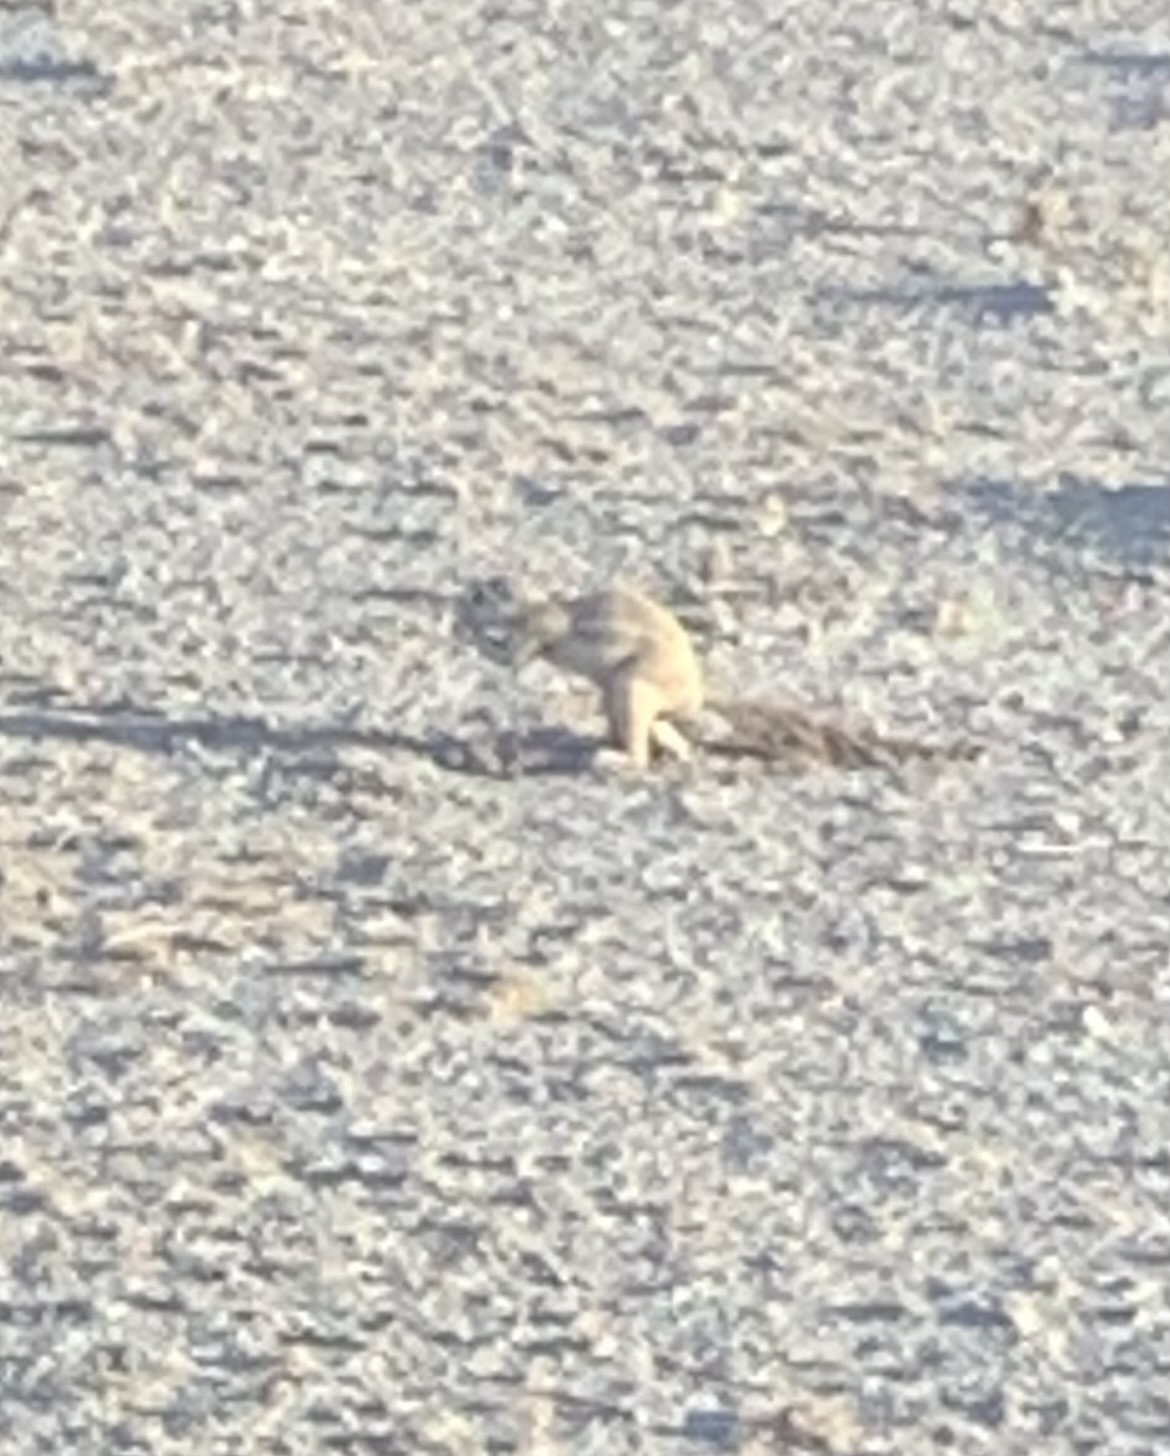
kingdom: Animalia
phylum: Chordata
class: Mammalia
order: Rodentia
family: Sciuridae
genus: Xerus
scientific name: Xerus inauris
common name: South african ground squirrel
